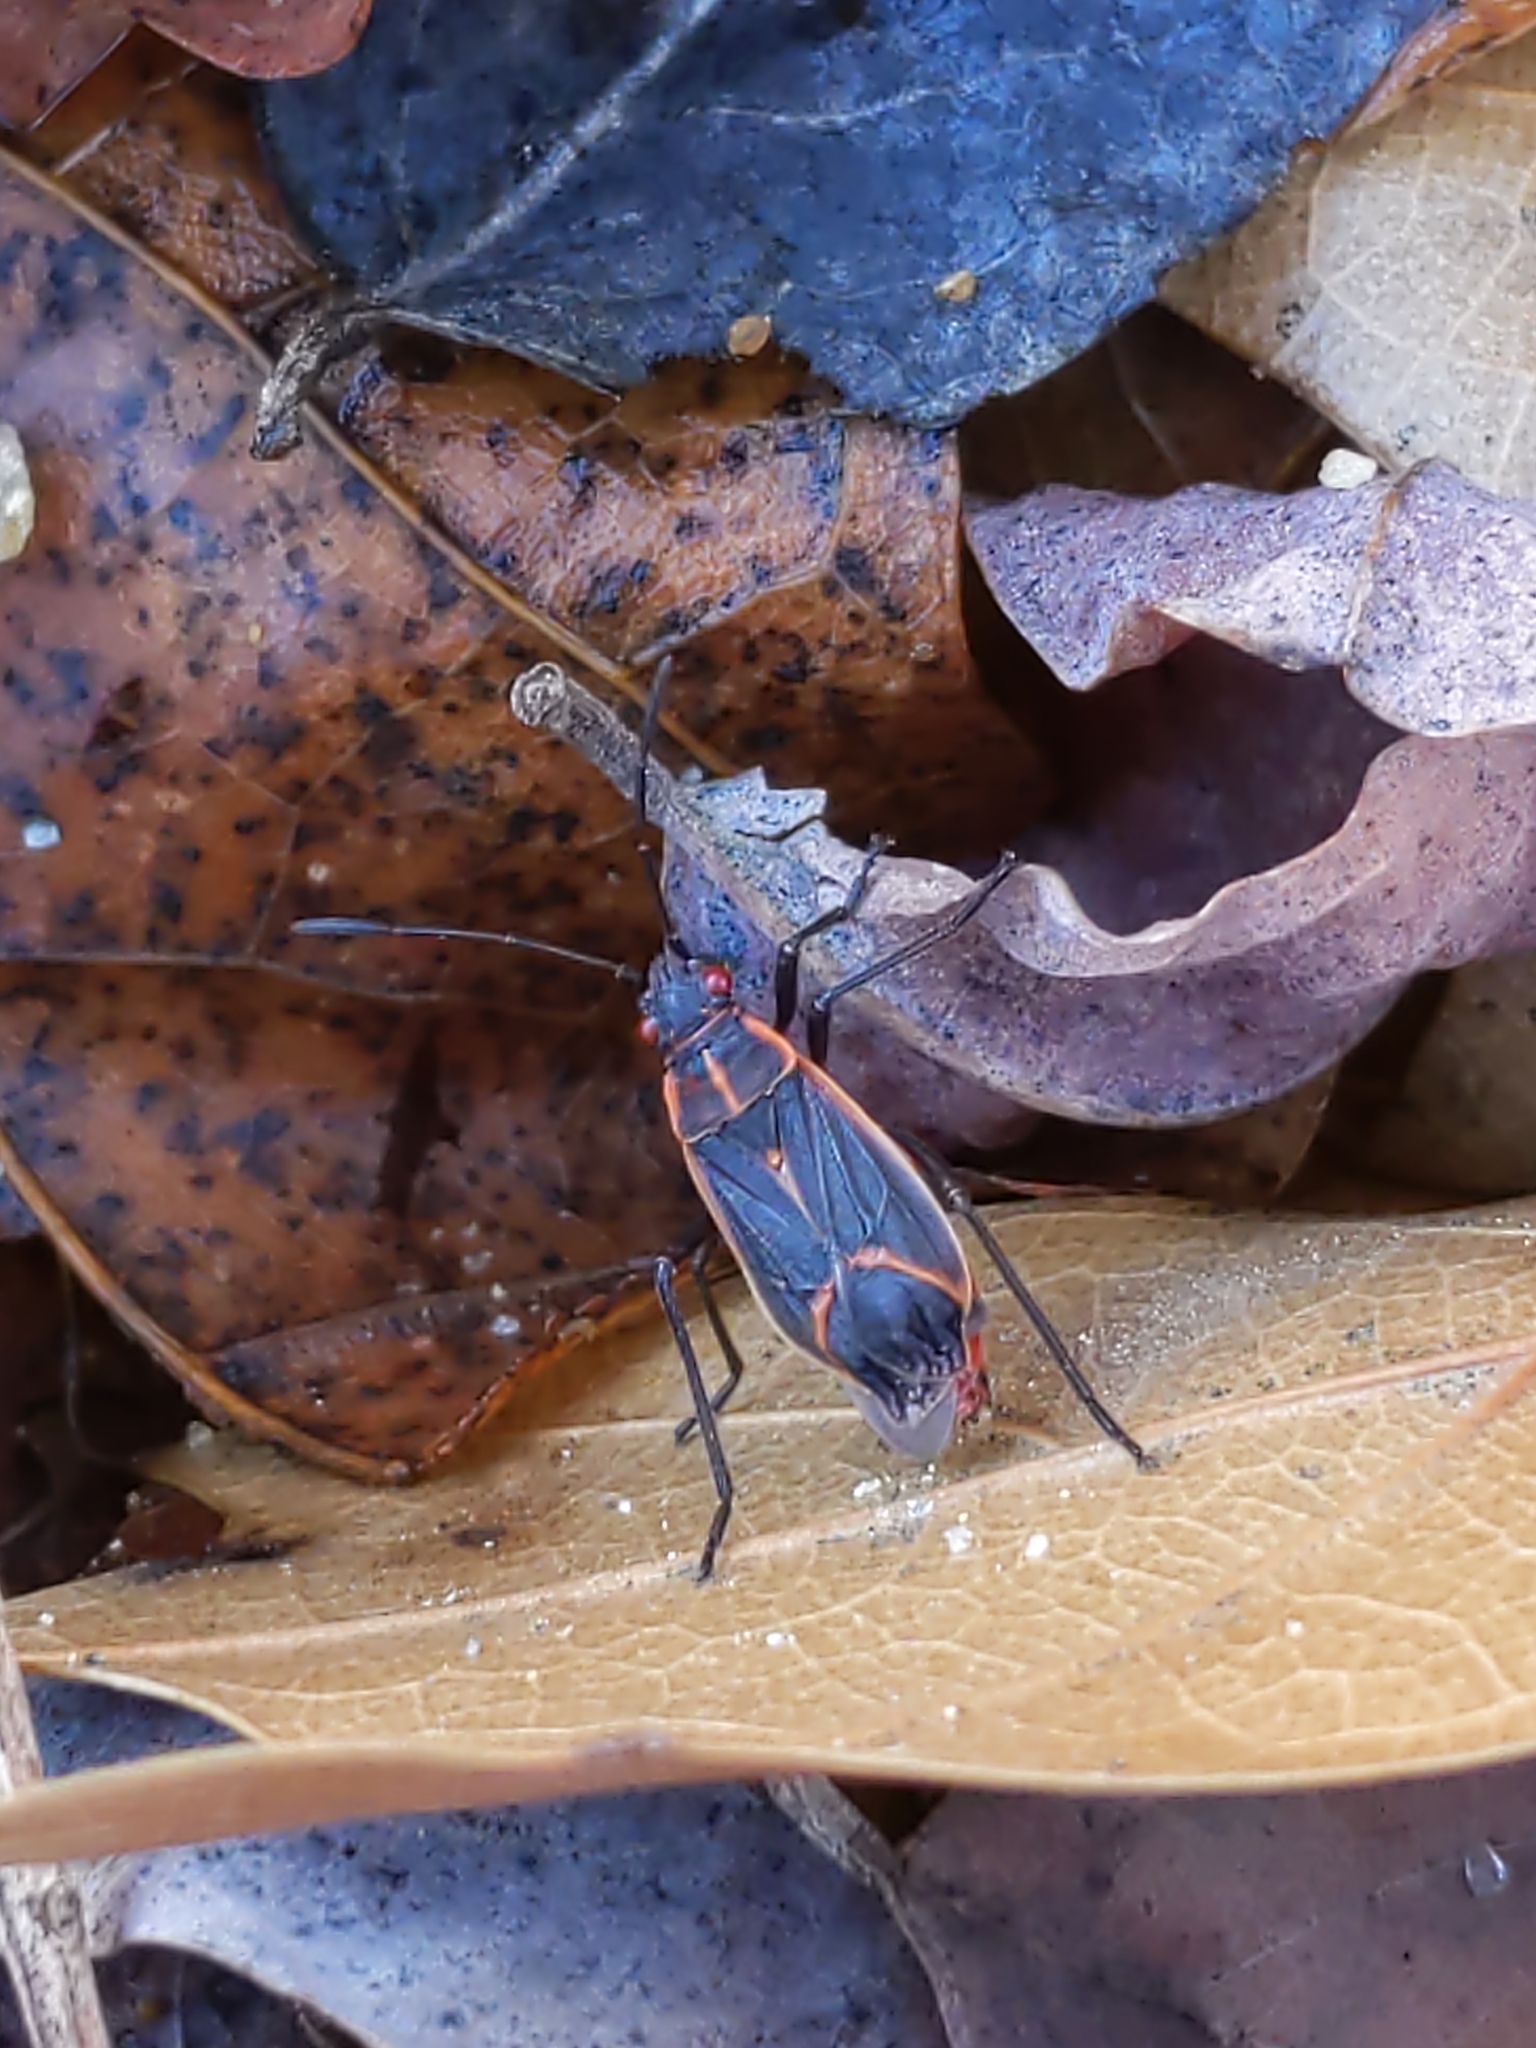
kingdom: Animalia
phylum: Arthropoda
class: Insecta
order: Hemiptera
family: Rhopalidae
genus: Boisea
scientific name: Boisea trivittata
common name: Boxelder bug
